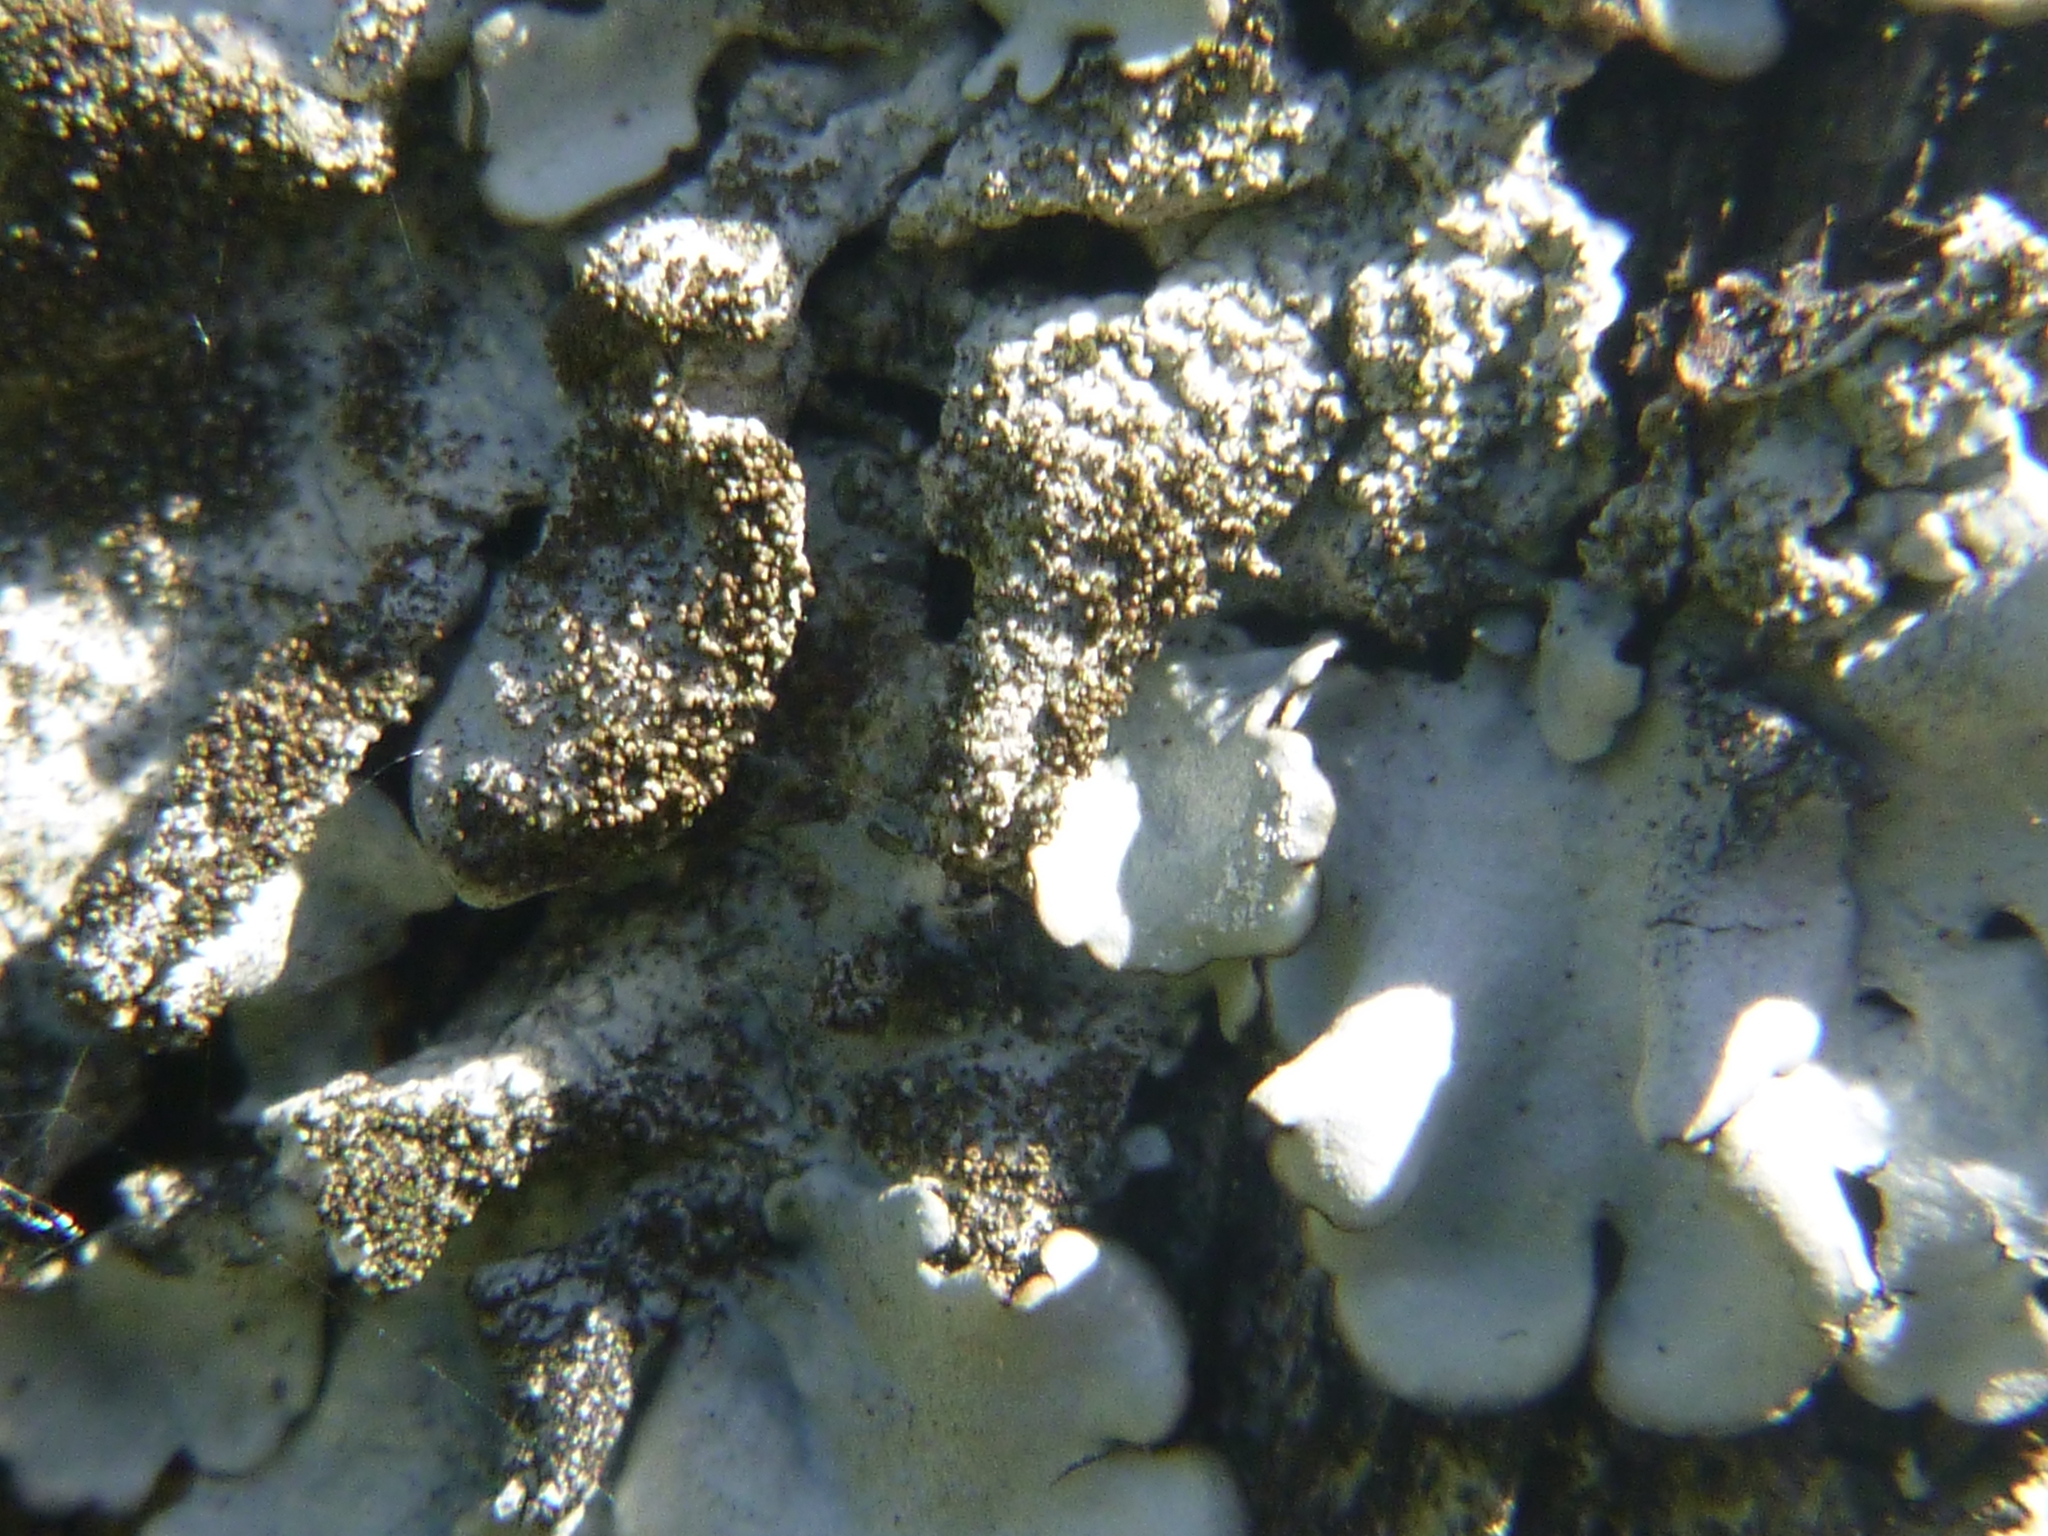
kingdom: Fungi
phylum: Ascomycota
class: Lecanoromycetes
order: Lecanorales
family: Parmeliaceae
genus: Parmelina
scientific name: Parmelina tiliacea
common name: Linden shield lichen
